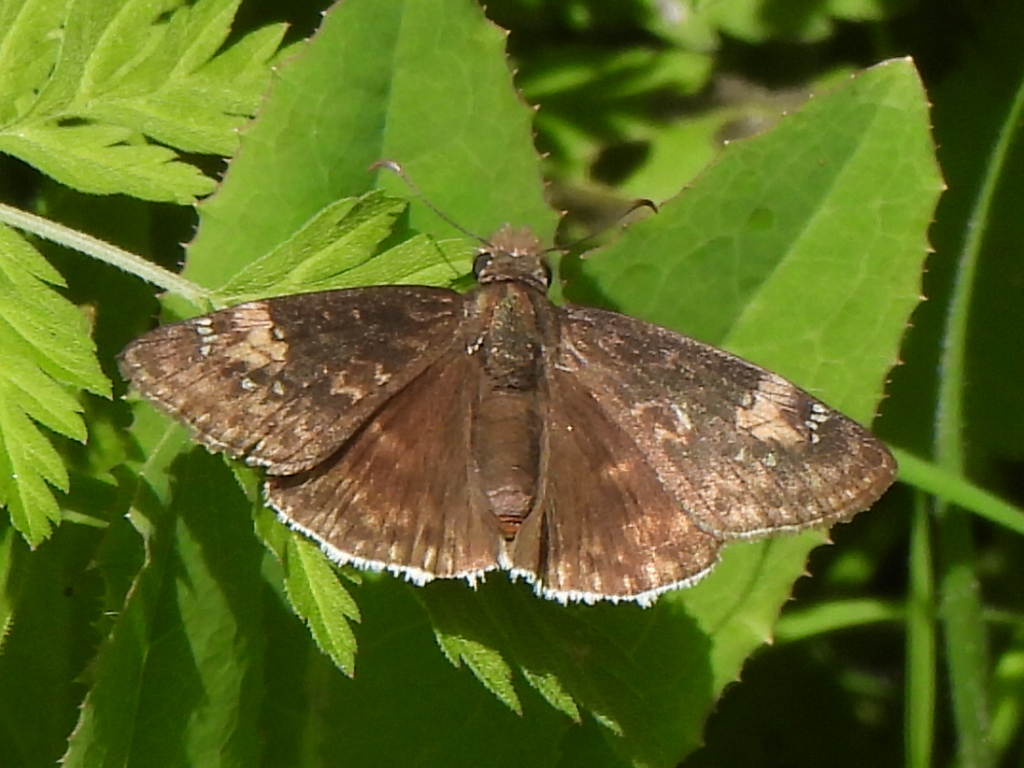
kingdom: Animalia
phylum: Arthropoda
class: Insecta
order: Lepidoptera
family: Hesperiidae
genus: Erynnis
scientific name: Erynnis funeralis
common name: Funereal duskywing
